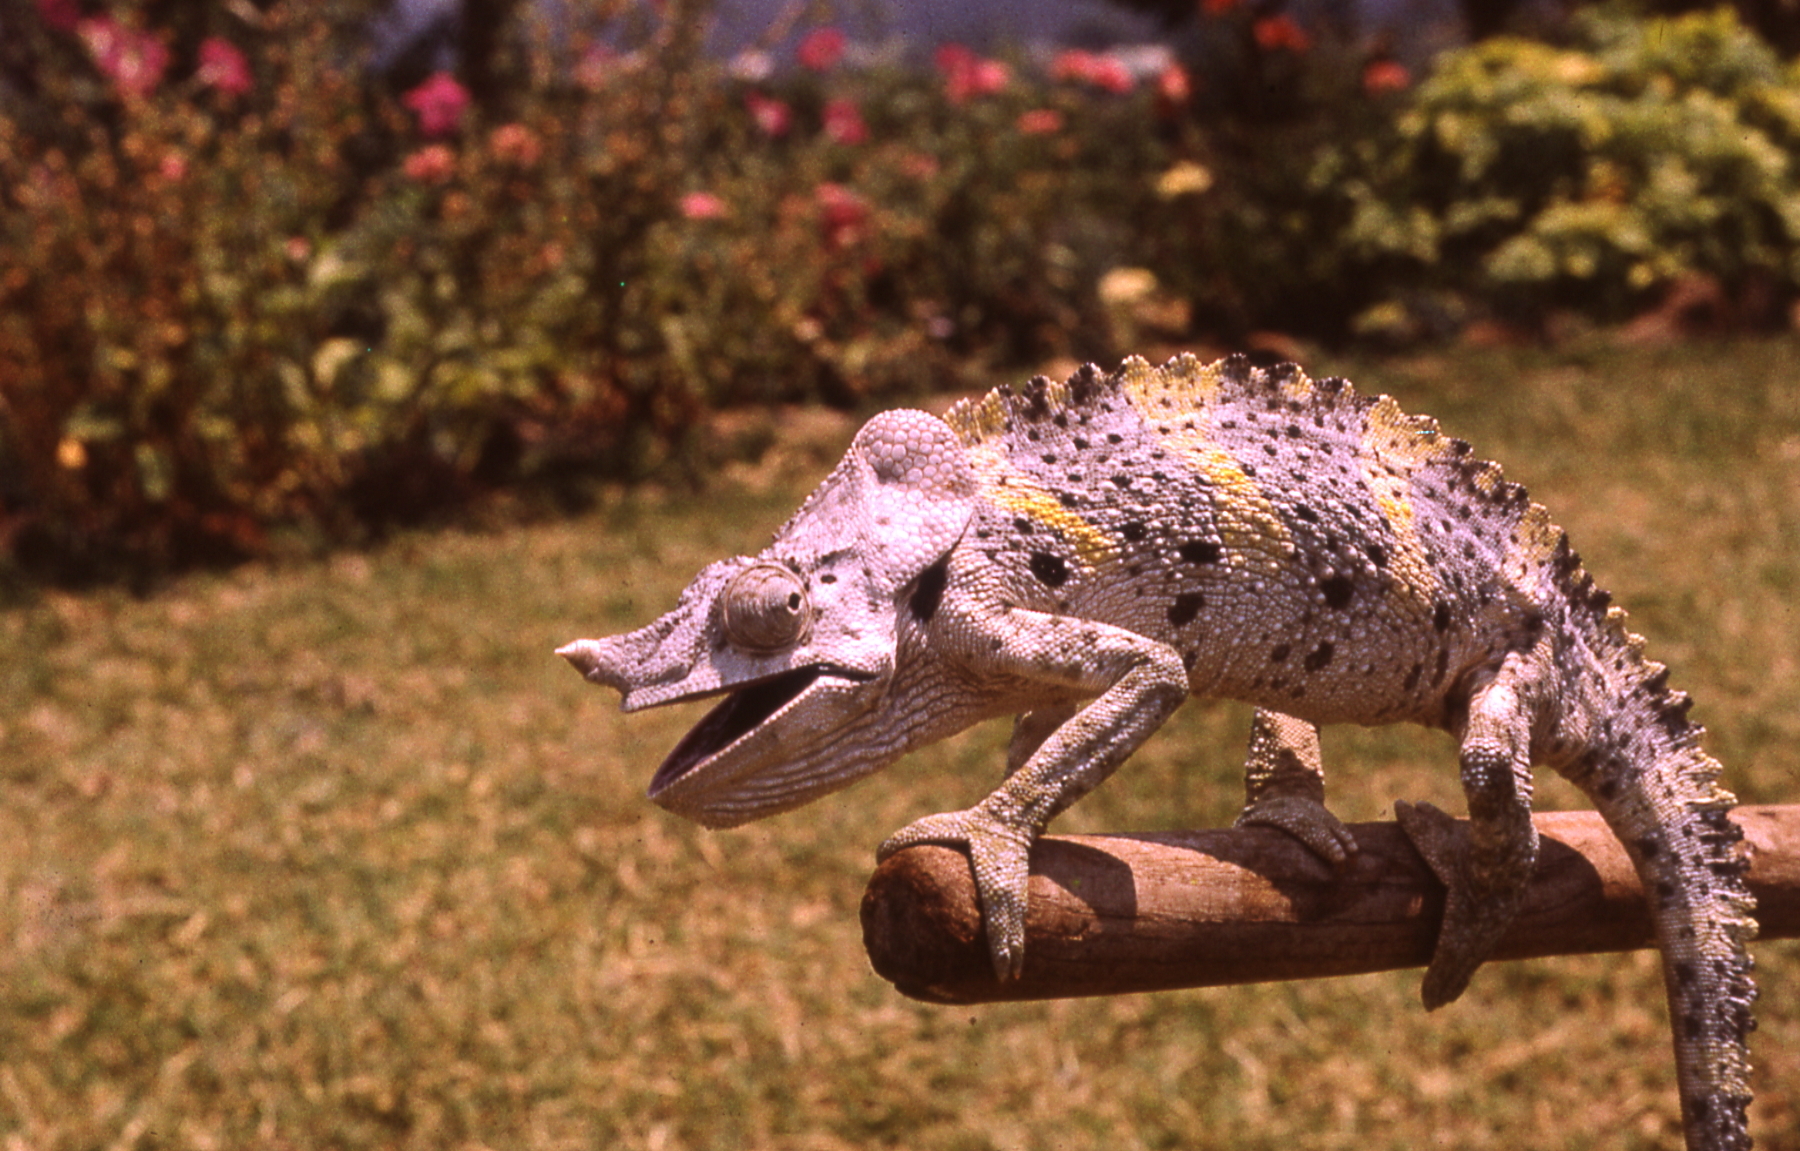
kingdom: Animalia
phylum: Chordata
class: Squamata
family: Chamaeleonidae
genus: Trioceros
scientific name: Trioceros melleri
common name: Meller's chameleon
